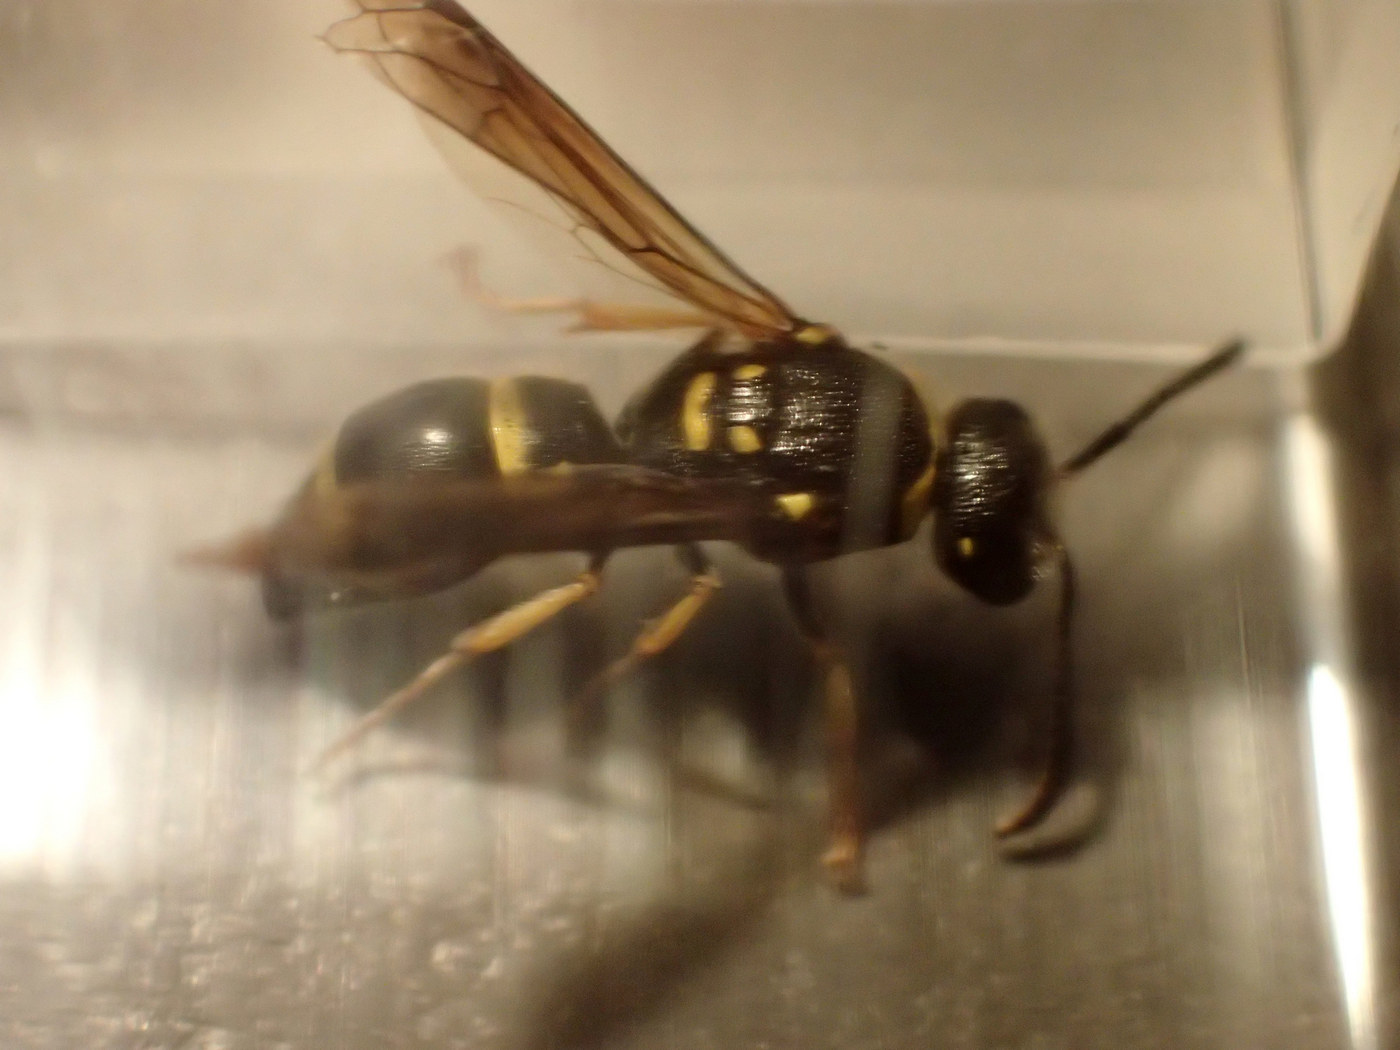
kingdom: Animalia
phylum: Arthropoda
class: Insecta
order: Hymenoptera
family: Vespidae
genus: Ancistrocerus
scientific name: Ancistrocerus campestris
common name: Smiling mason wasp
